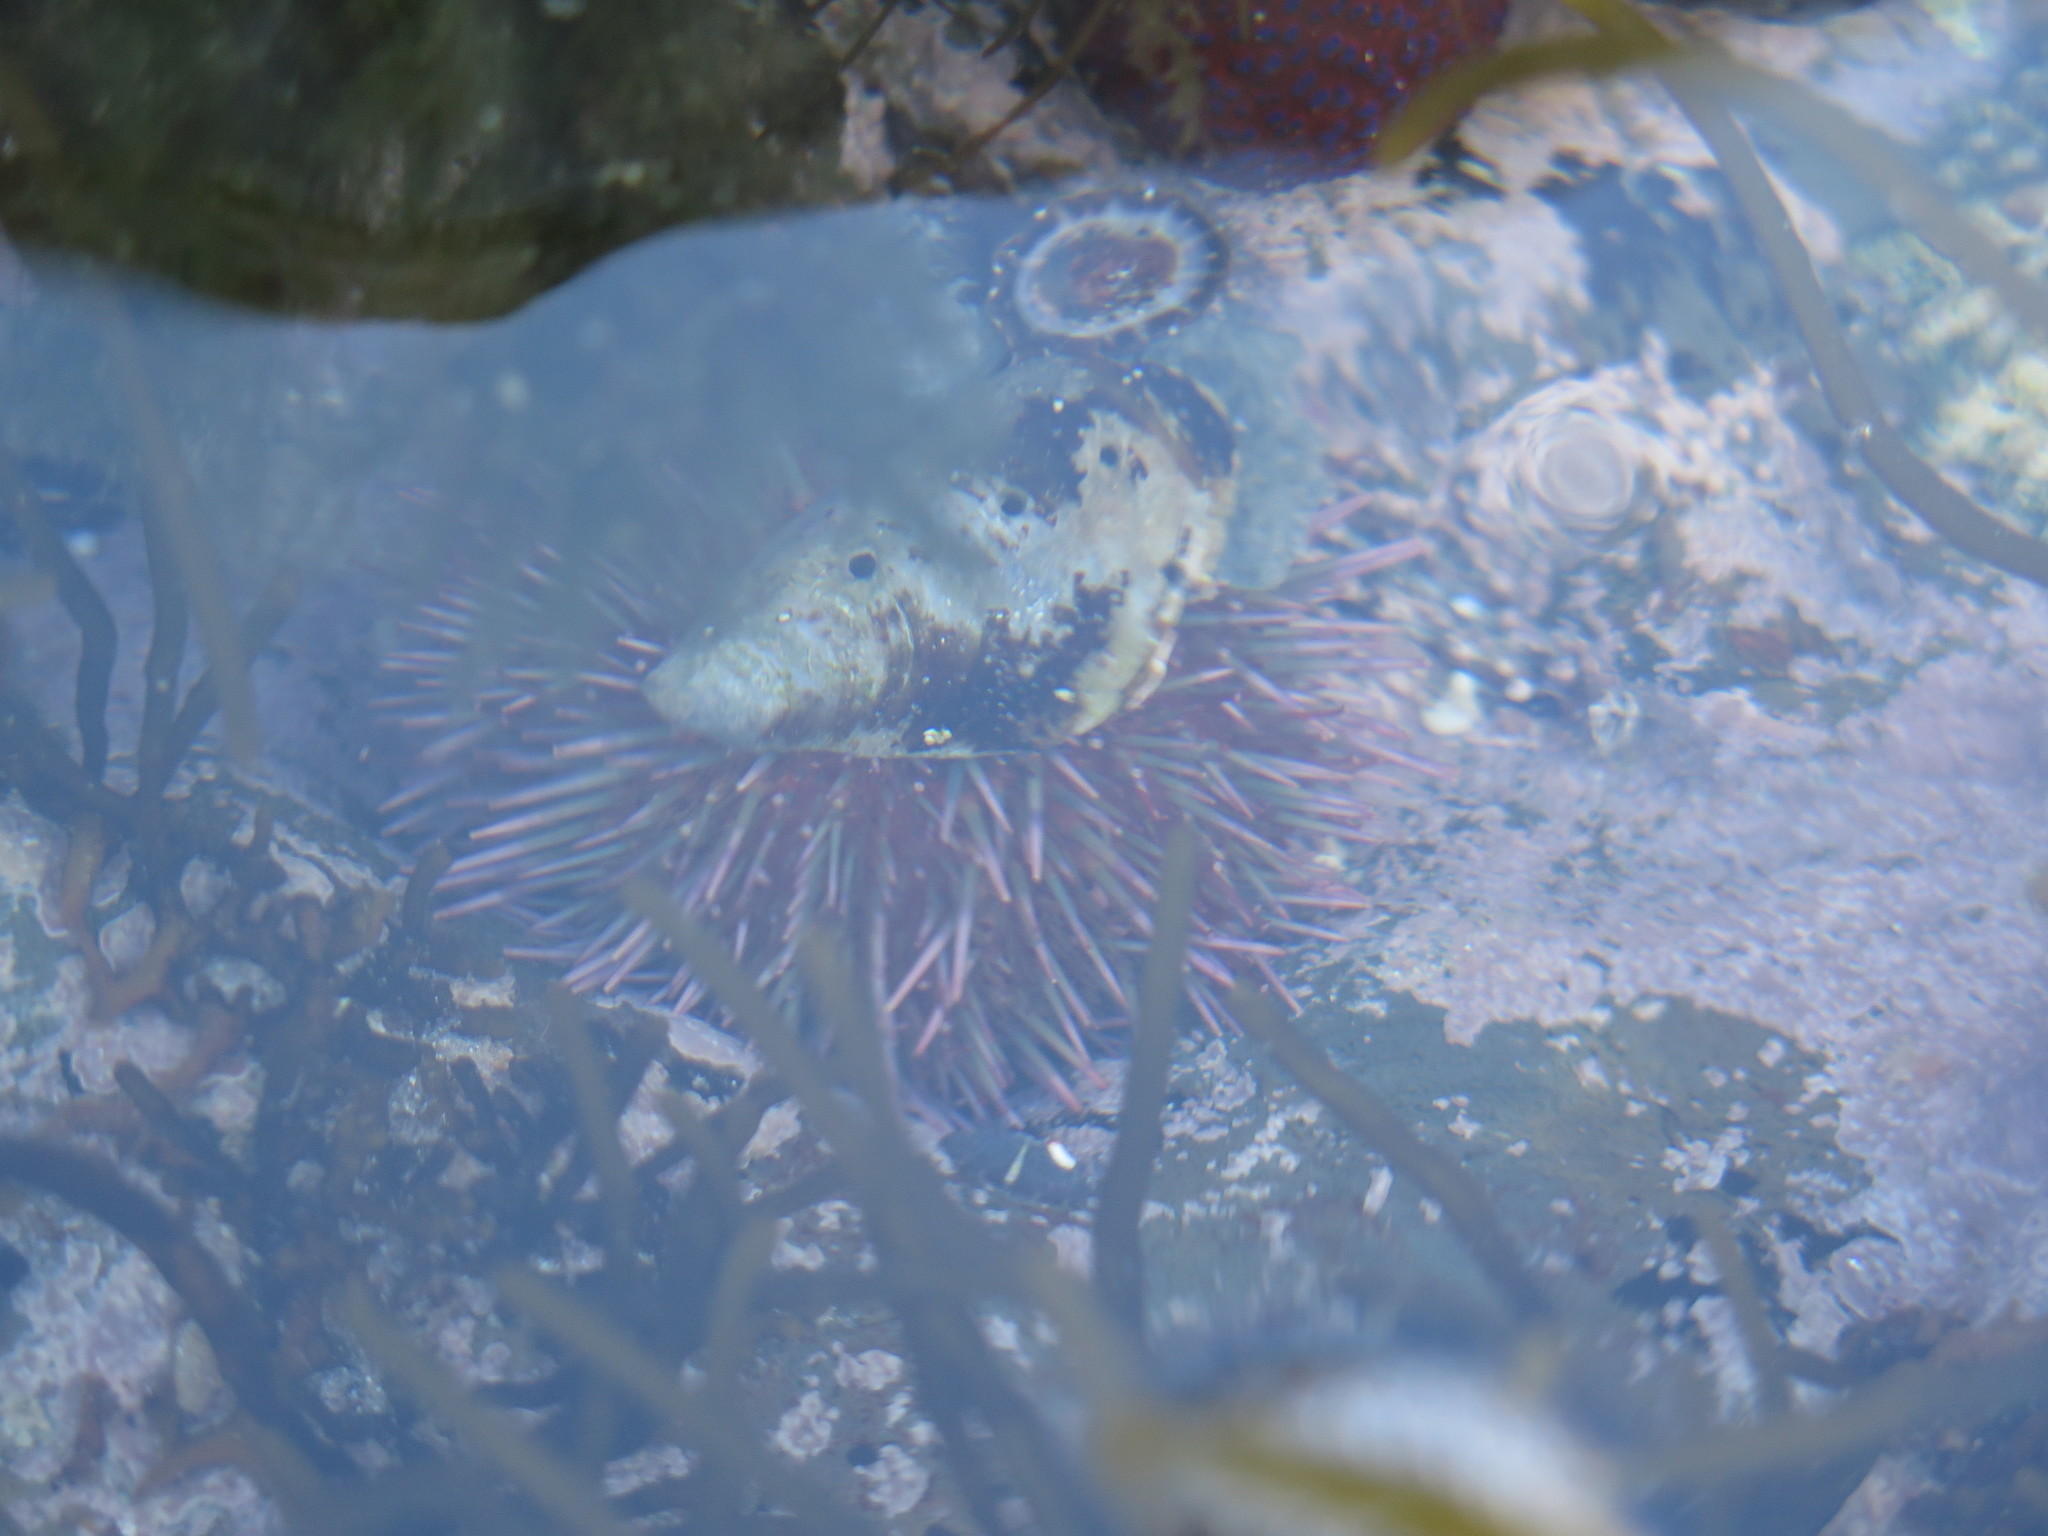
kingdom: Animalia
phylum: Echinodermata
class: Echinoidea
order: Camarodonta
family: Parechinidae
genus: Parechinus
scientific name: Parechinus angulosus
